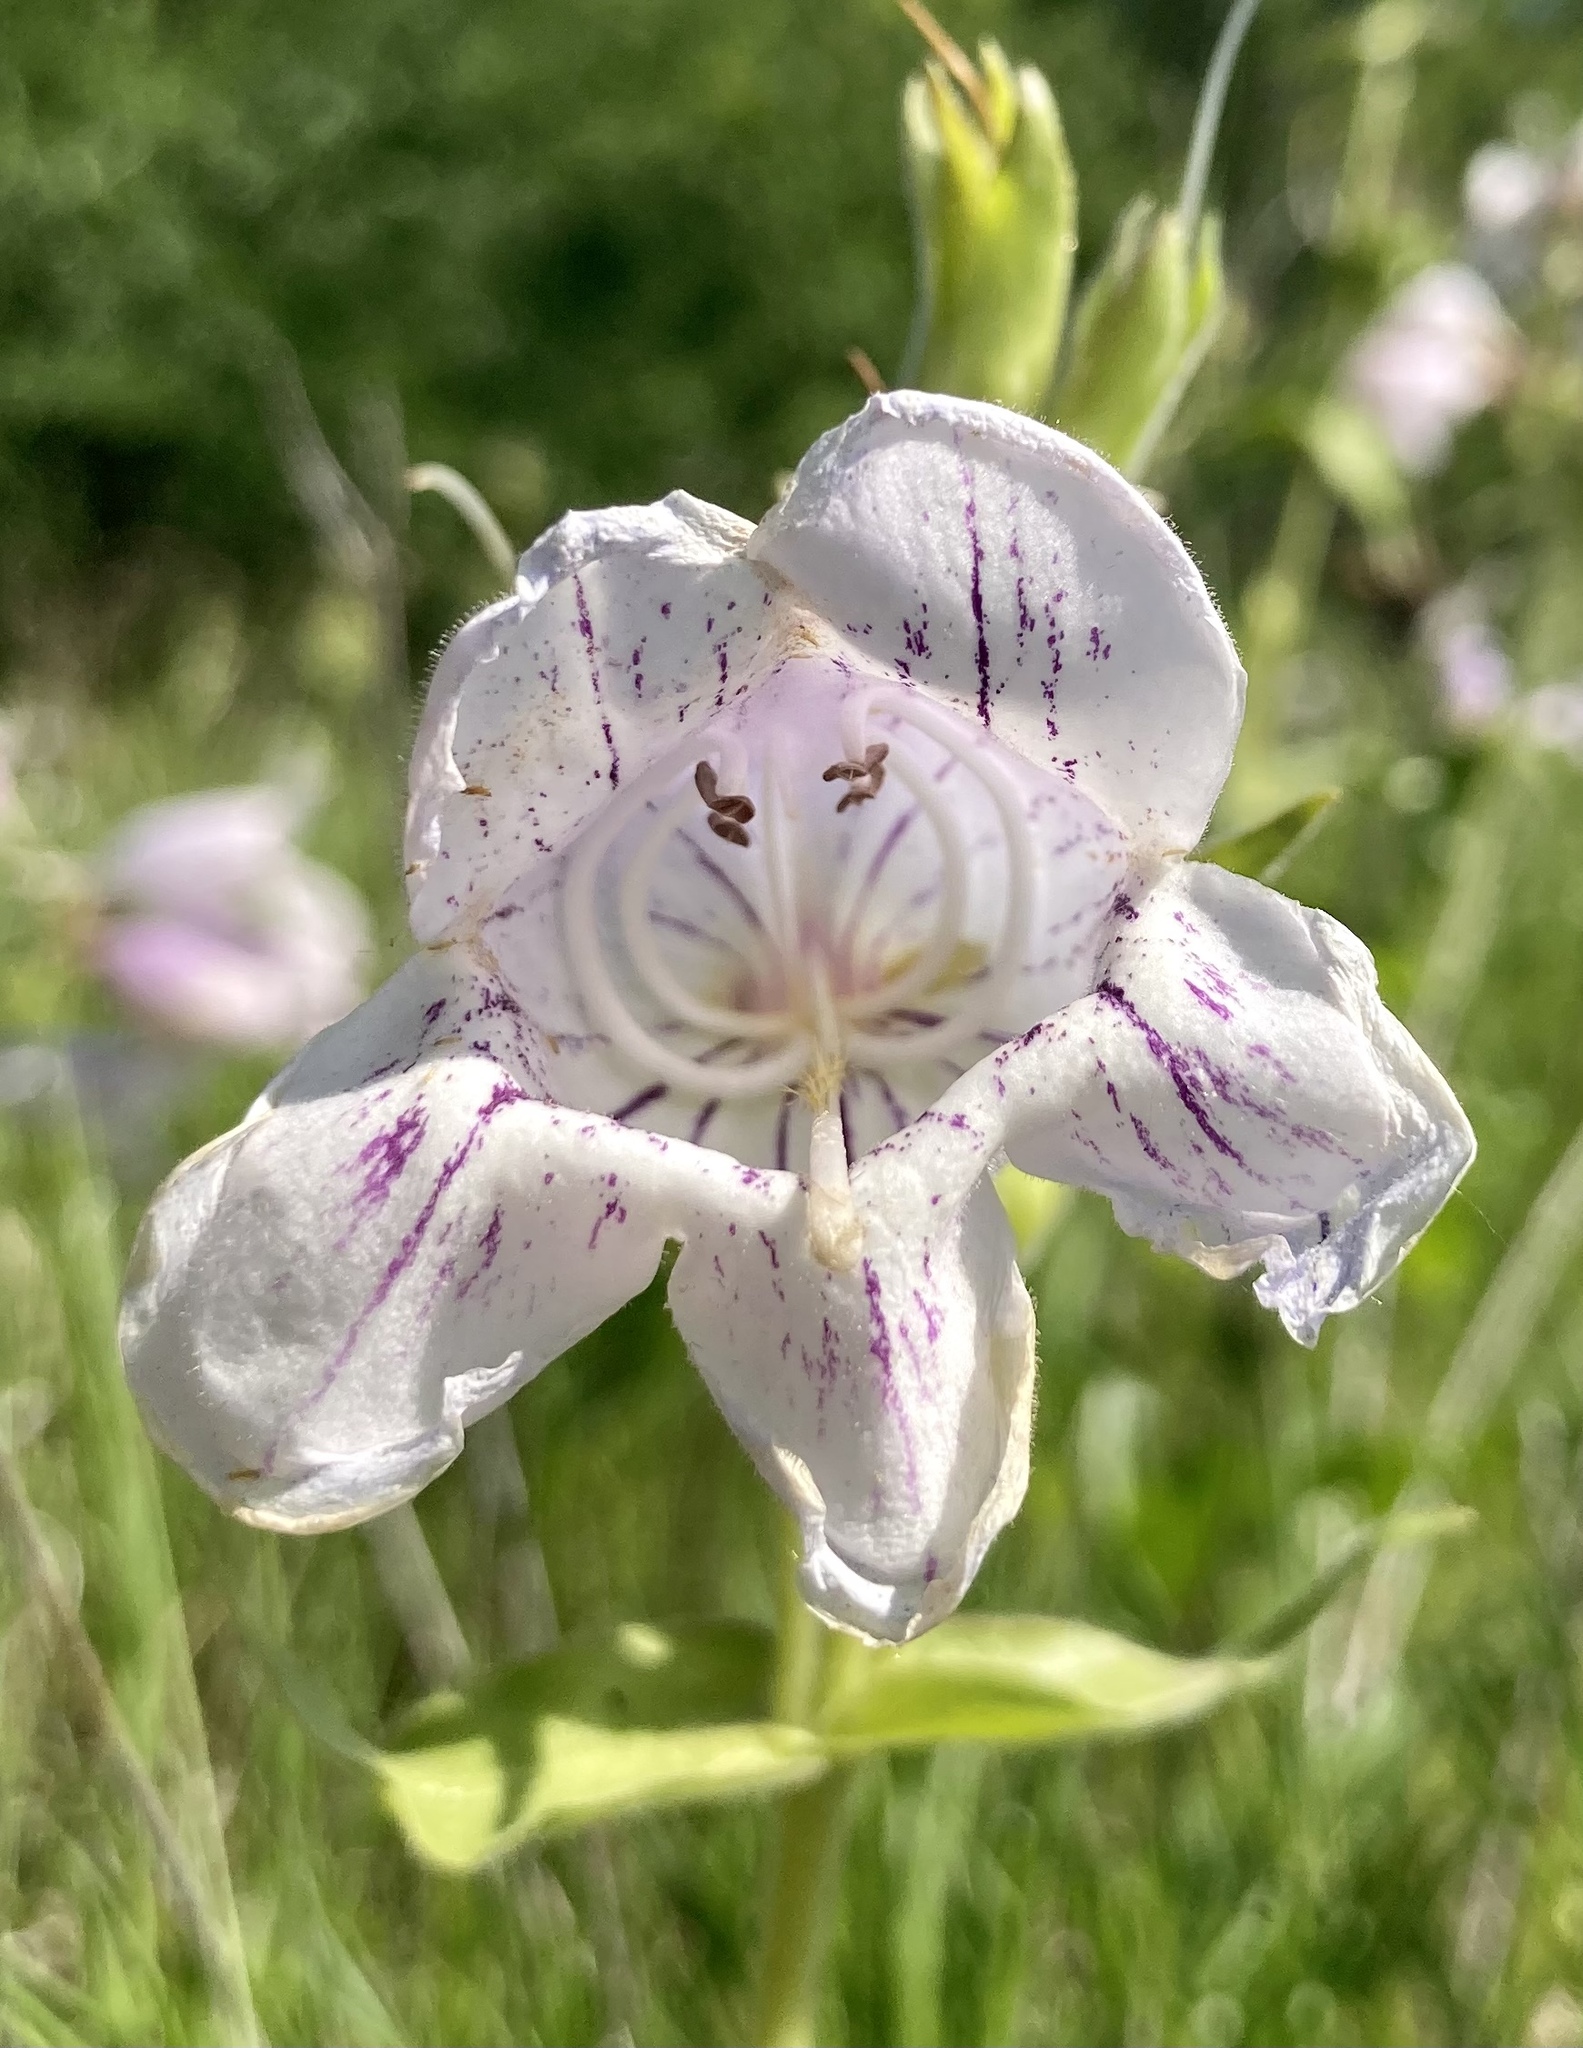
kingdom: Plantae
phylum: Tracheophyta
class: Magnoliopsida
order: Lamiales
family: Plantaginaceae
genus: Penstemon
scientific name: Penstemon cobaea
